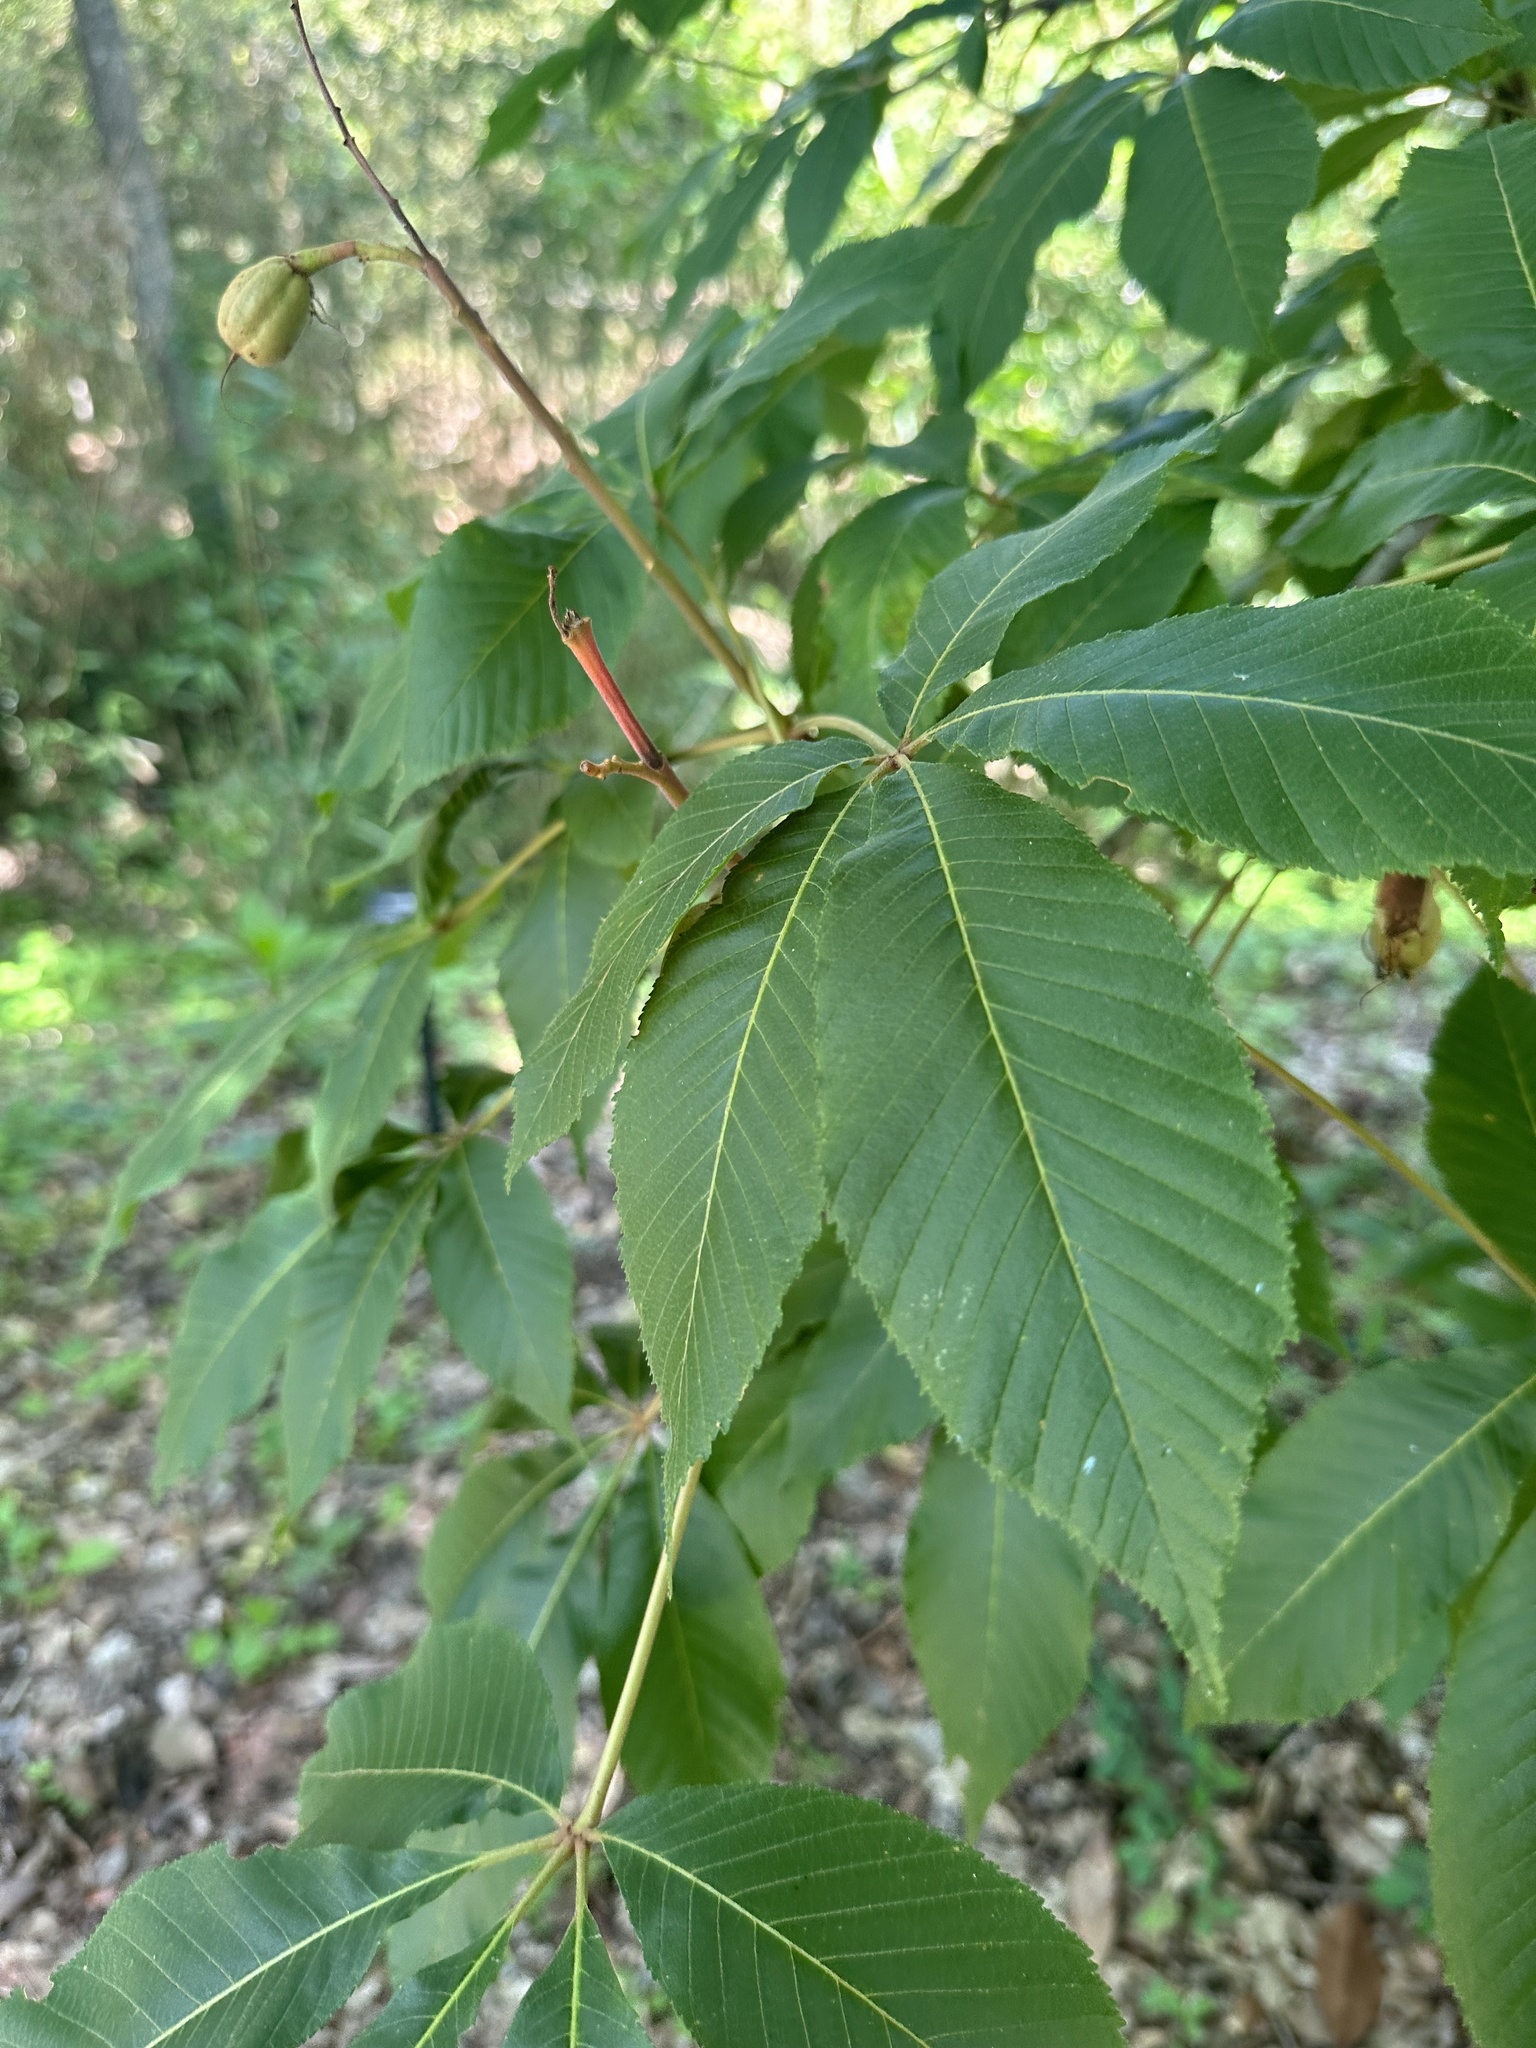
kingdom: Plantae
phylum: Tracheophyta
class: Magnoliopsida
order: Sapindales
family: Sapindaceae
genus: Aesculus
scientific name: Aesculus pavia
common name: Red buckeye
